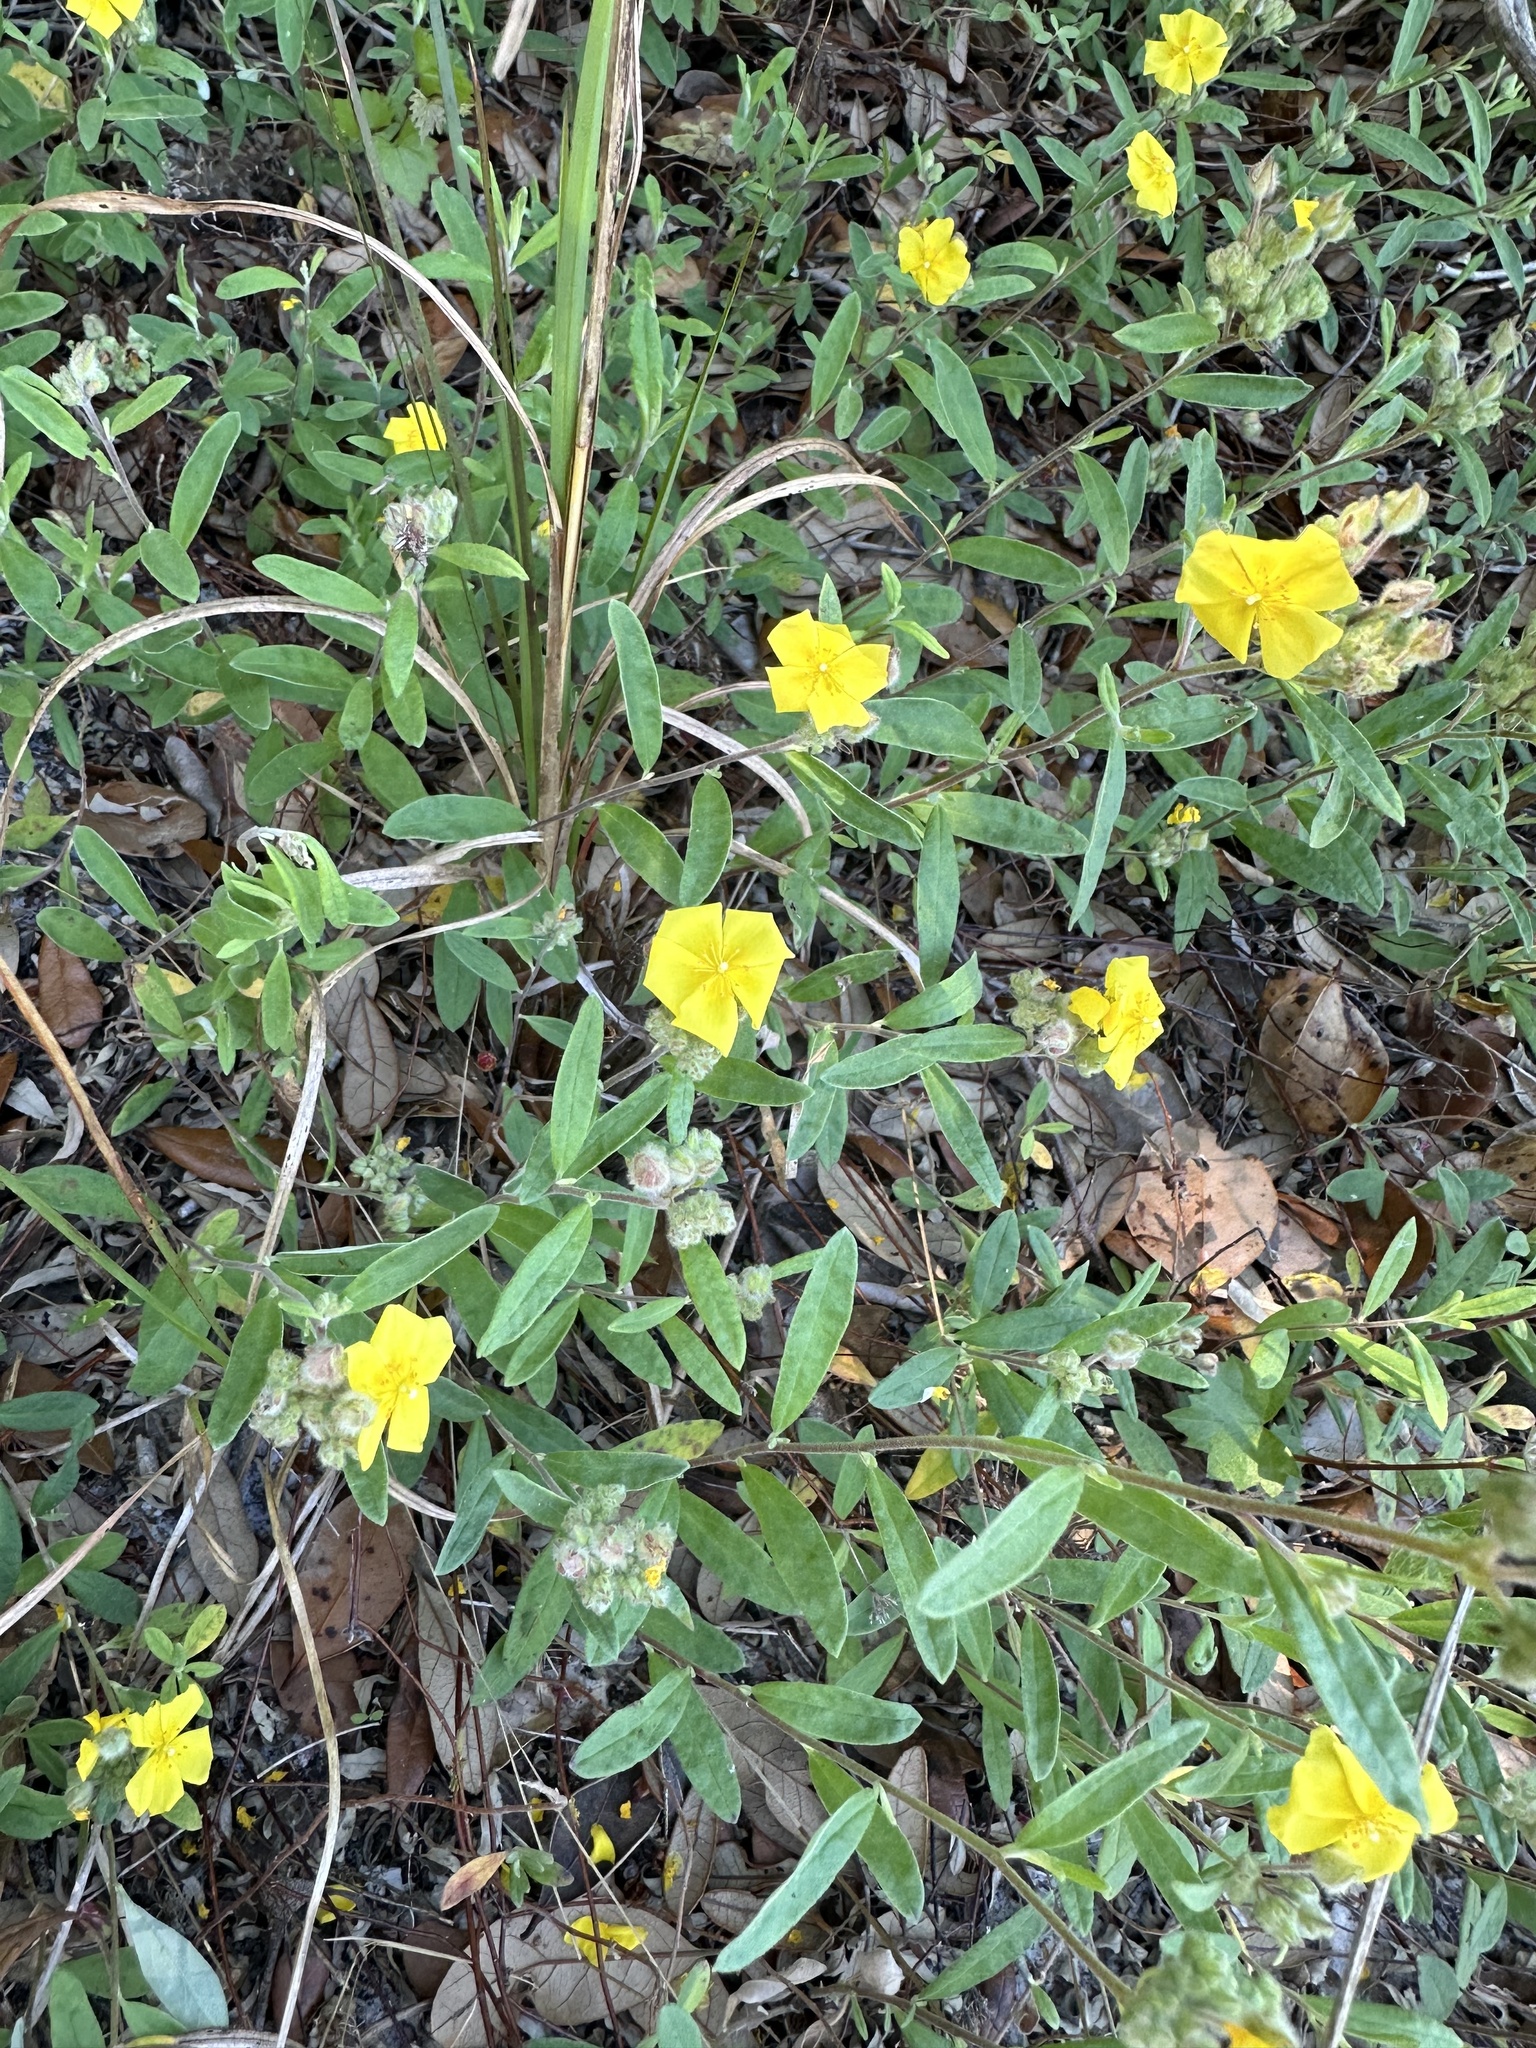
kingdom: Plantae
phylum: Tracheophyta
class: Magnoliopsida
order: Malvales
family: Cistaceae
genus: Crocanthemum
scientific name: Crocanthemum corymbosum
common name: Pinebarren sun-rose
